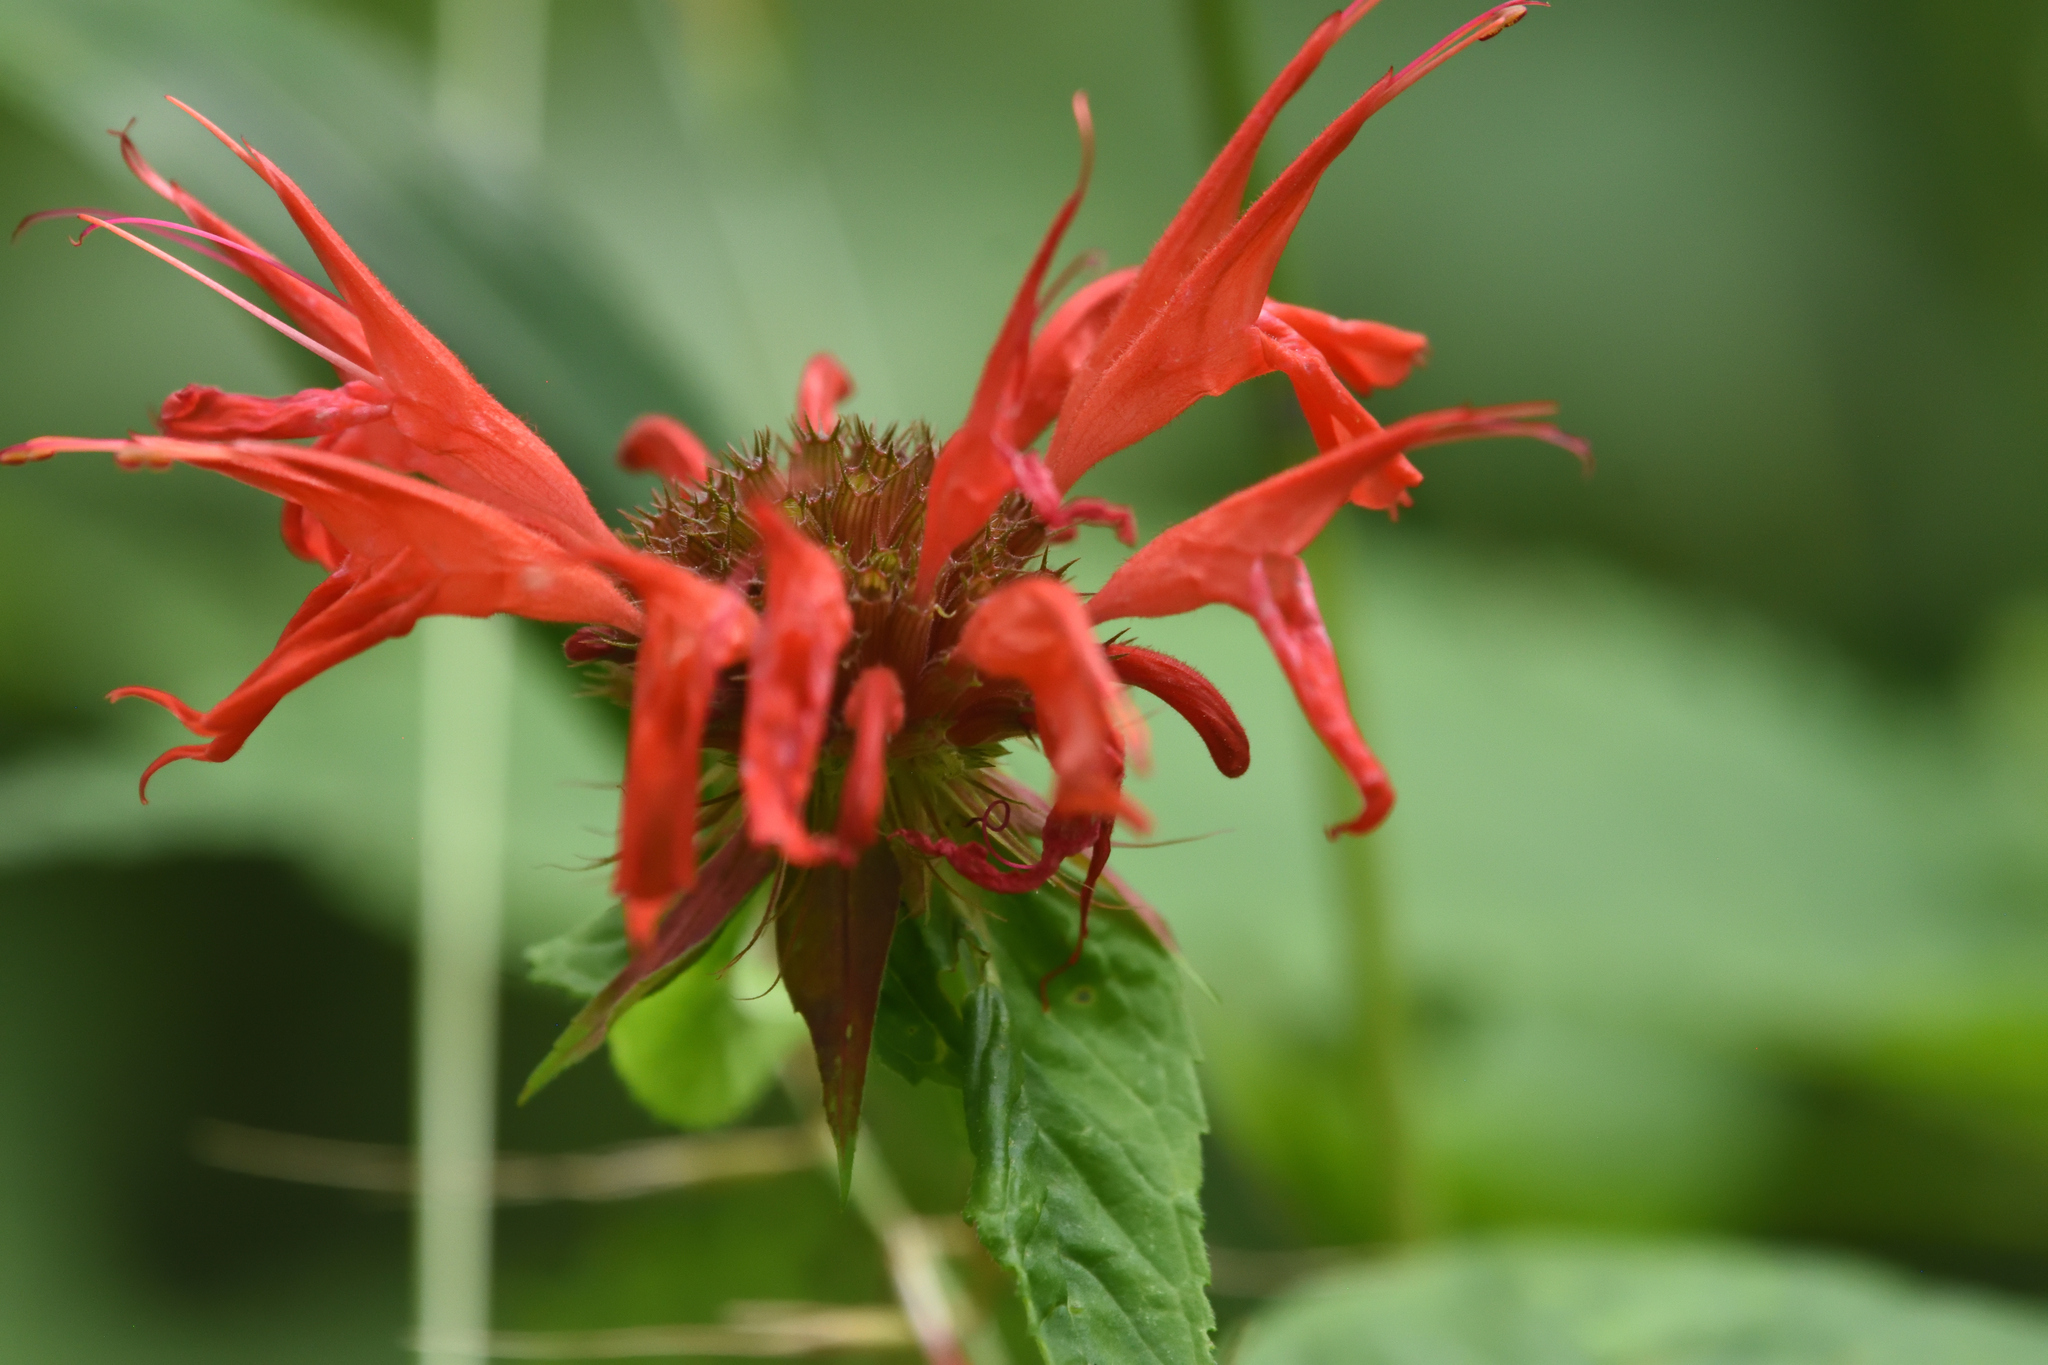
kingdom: Plantae
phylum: Tracheophyta
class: Magnoliopsida
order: Lamiales
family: Lamiaceae
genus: Monarda
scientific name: Monarda didyma
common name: Beebalm
